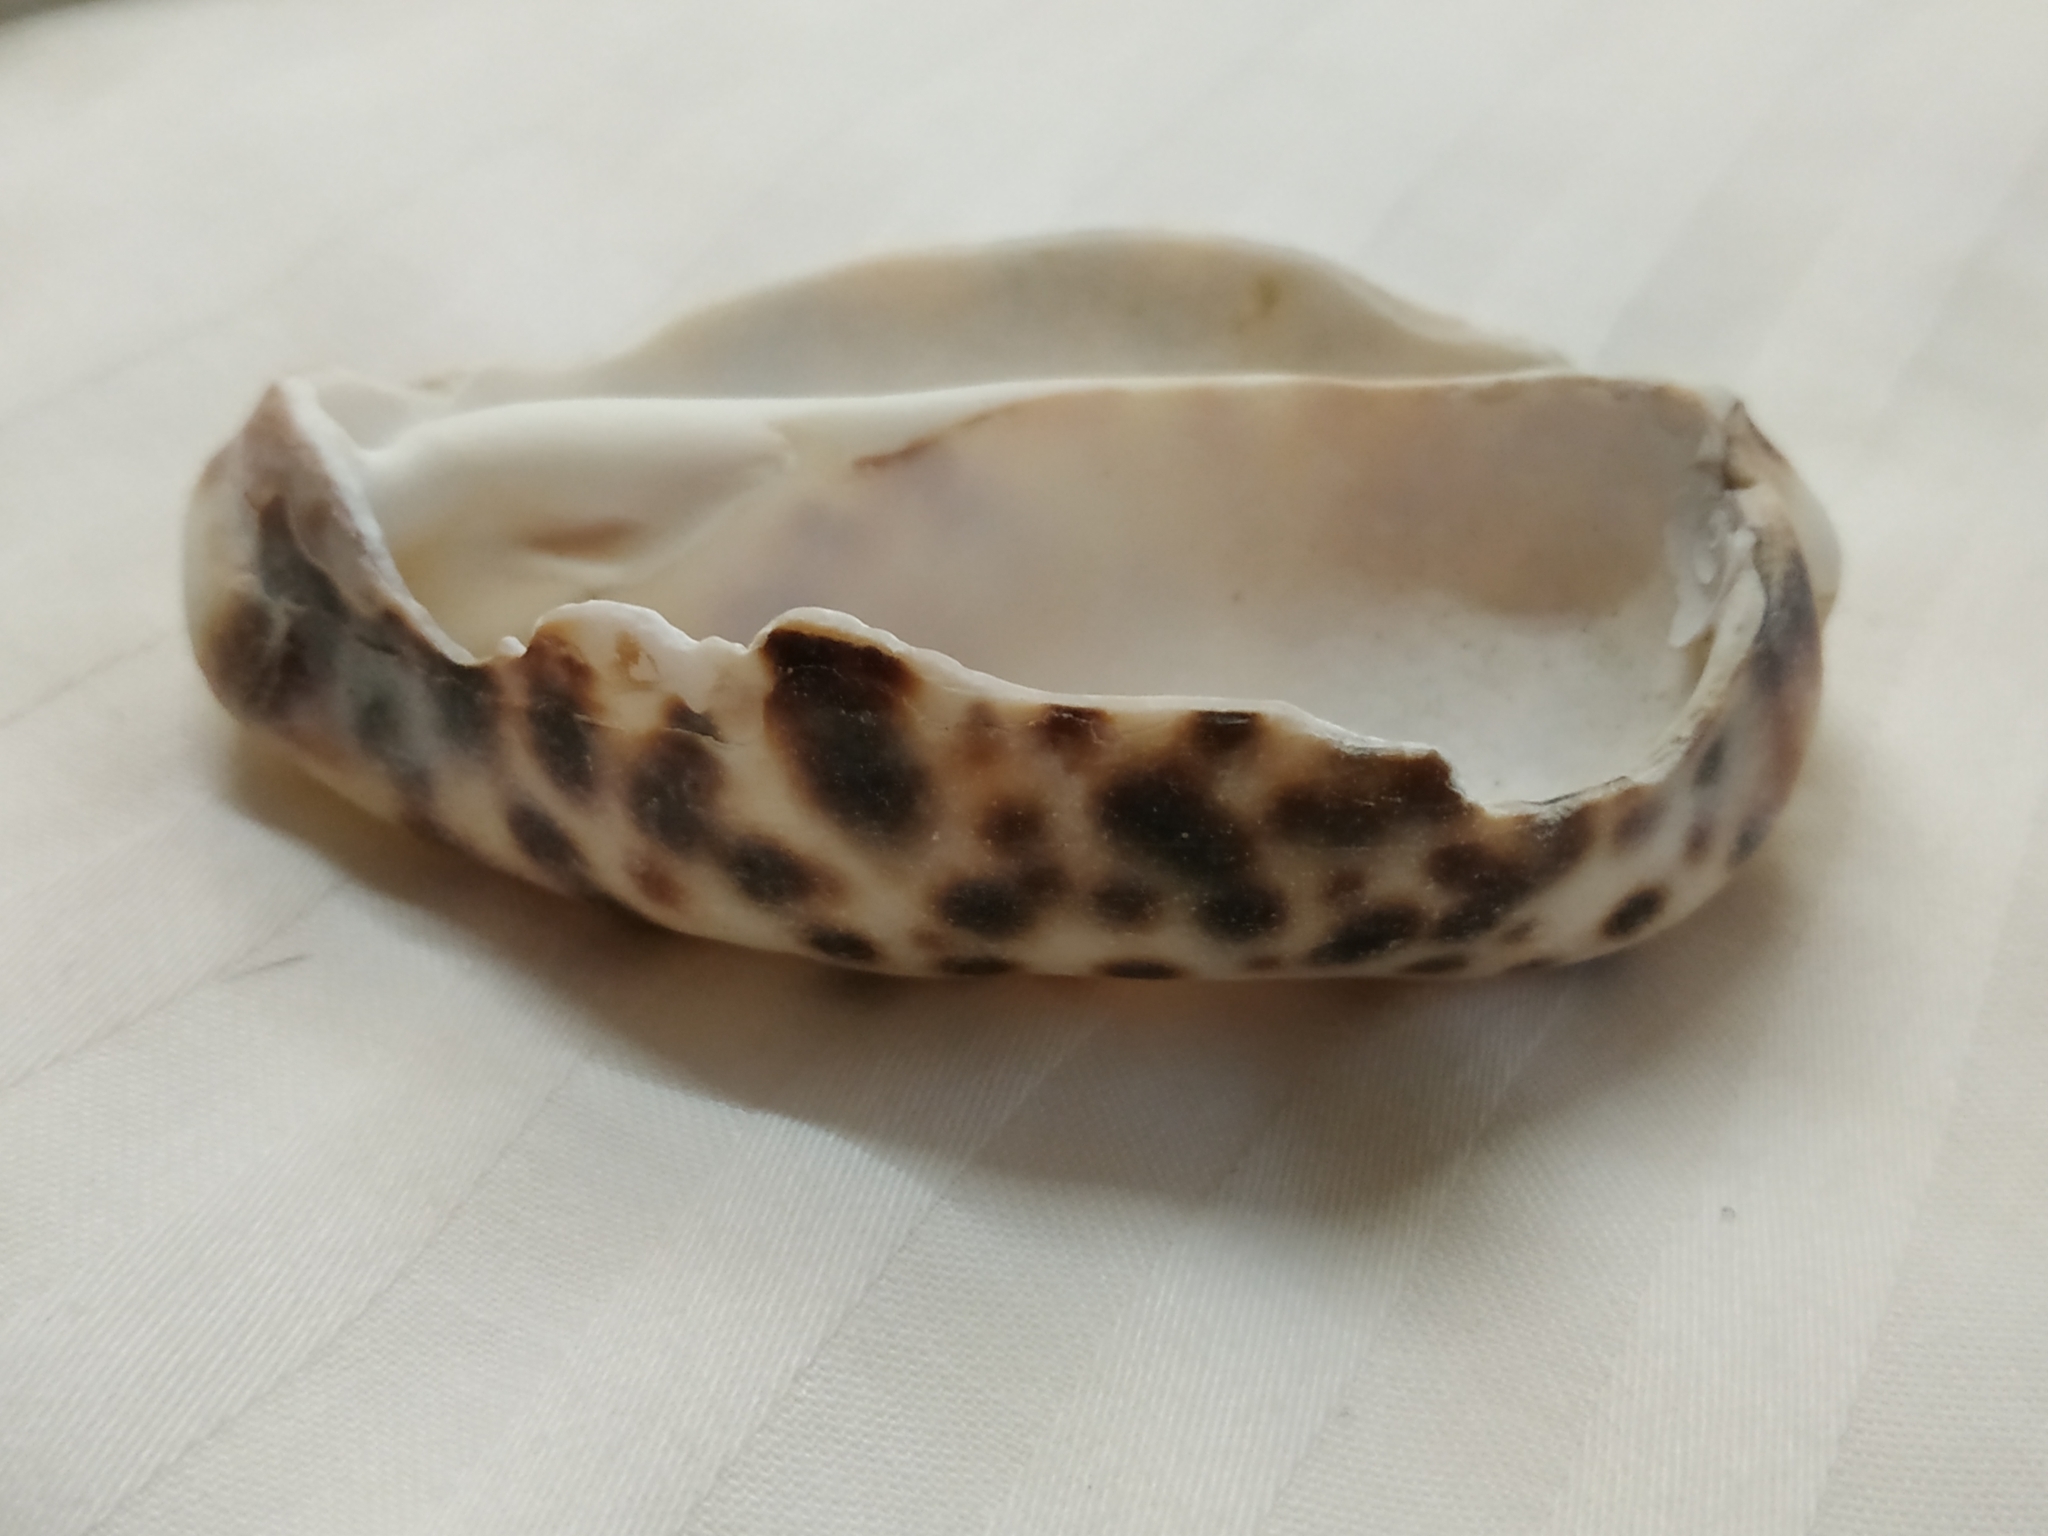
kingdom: Animalia
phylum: Mollusca
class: Gastropoda
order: Littorinimorpha
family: Cypraeidae
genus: Cypraea
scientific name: Cypraea tigris
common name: Tiger cowrie
